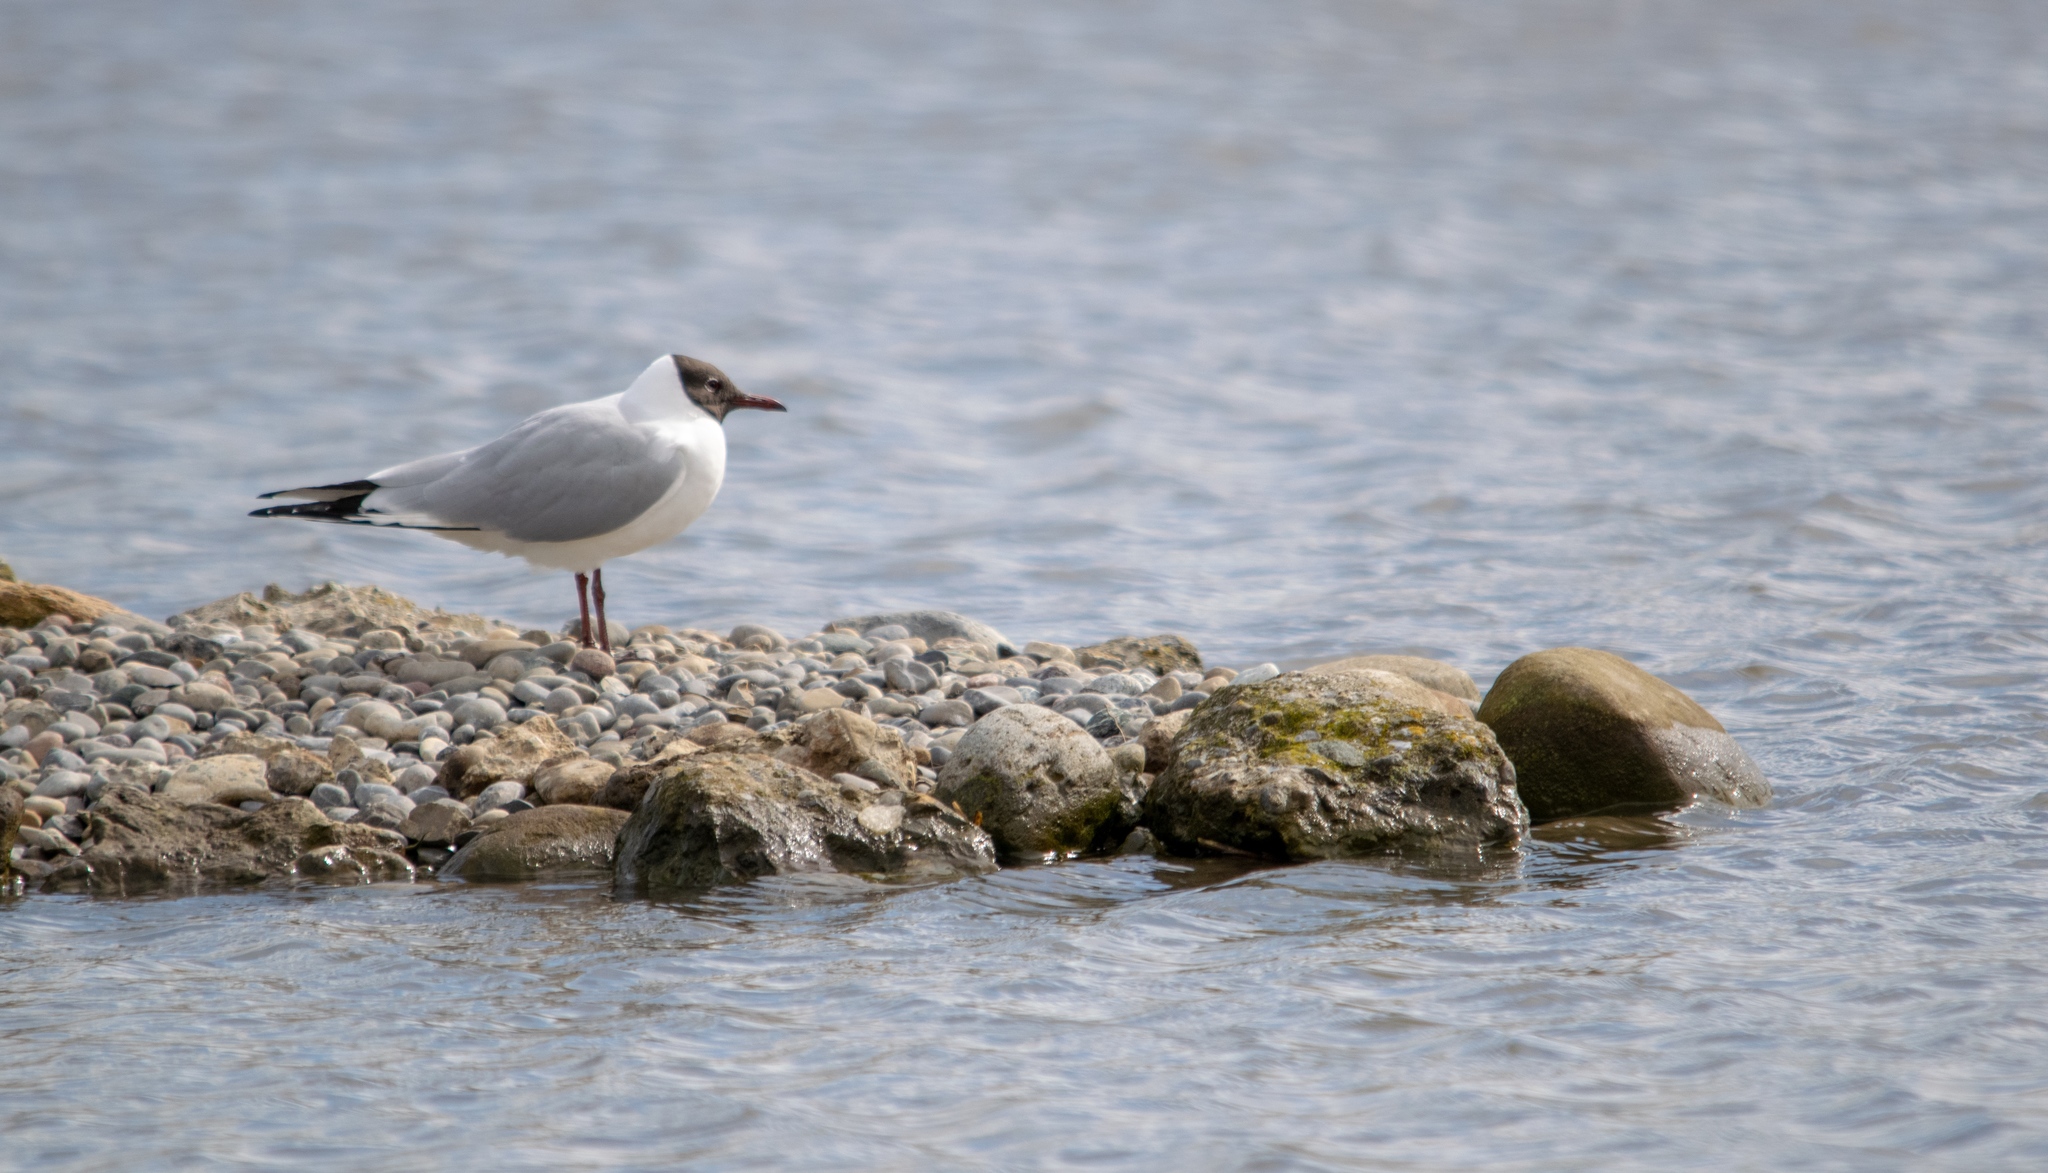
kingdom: Animalia
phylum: Chordata
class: Aves
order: Charadriiformes
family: Laridae
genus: Chroicocephalus
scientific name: Chroicocephalus ridibundus
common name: Black-headed gull
